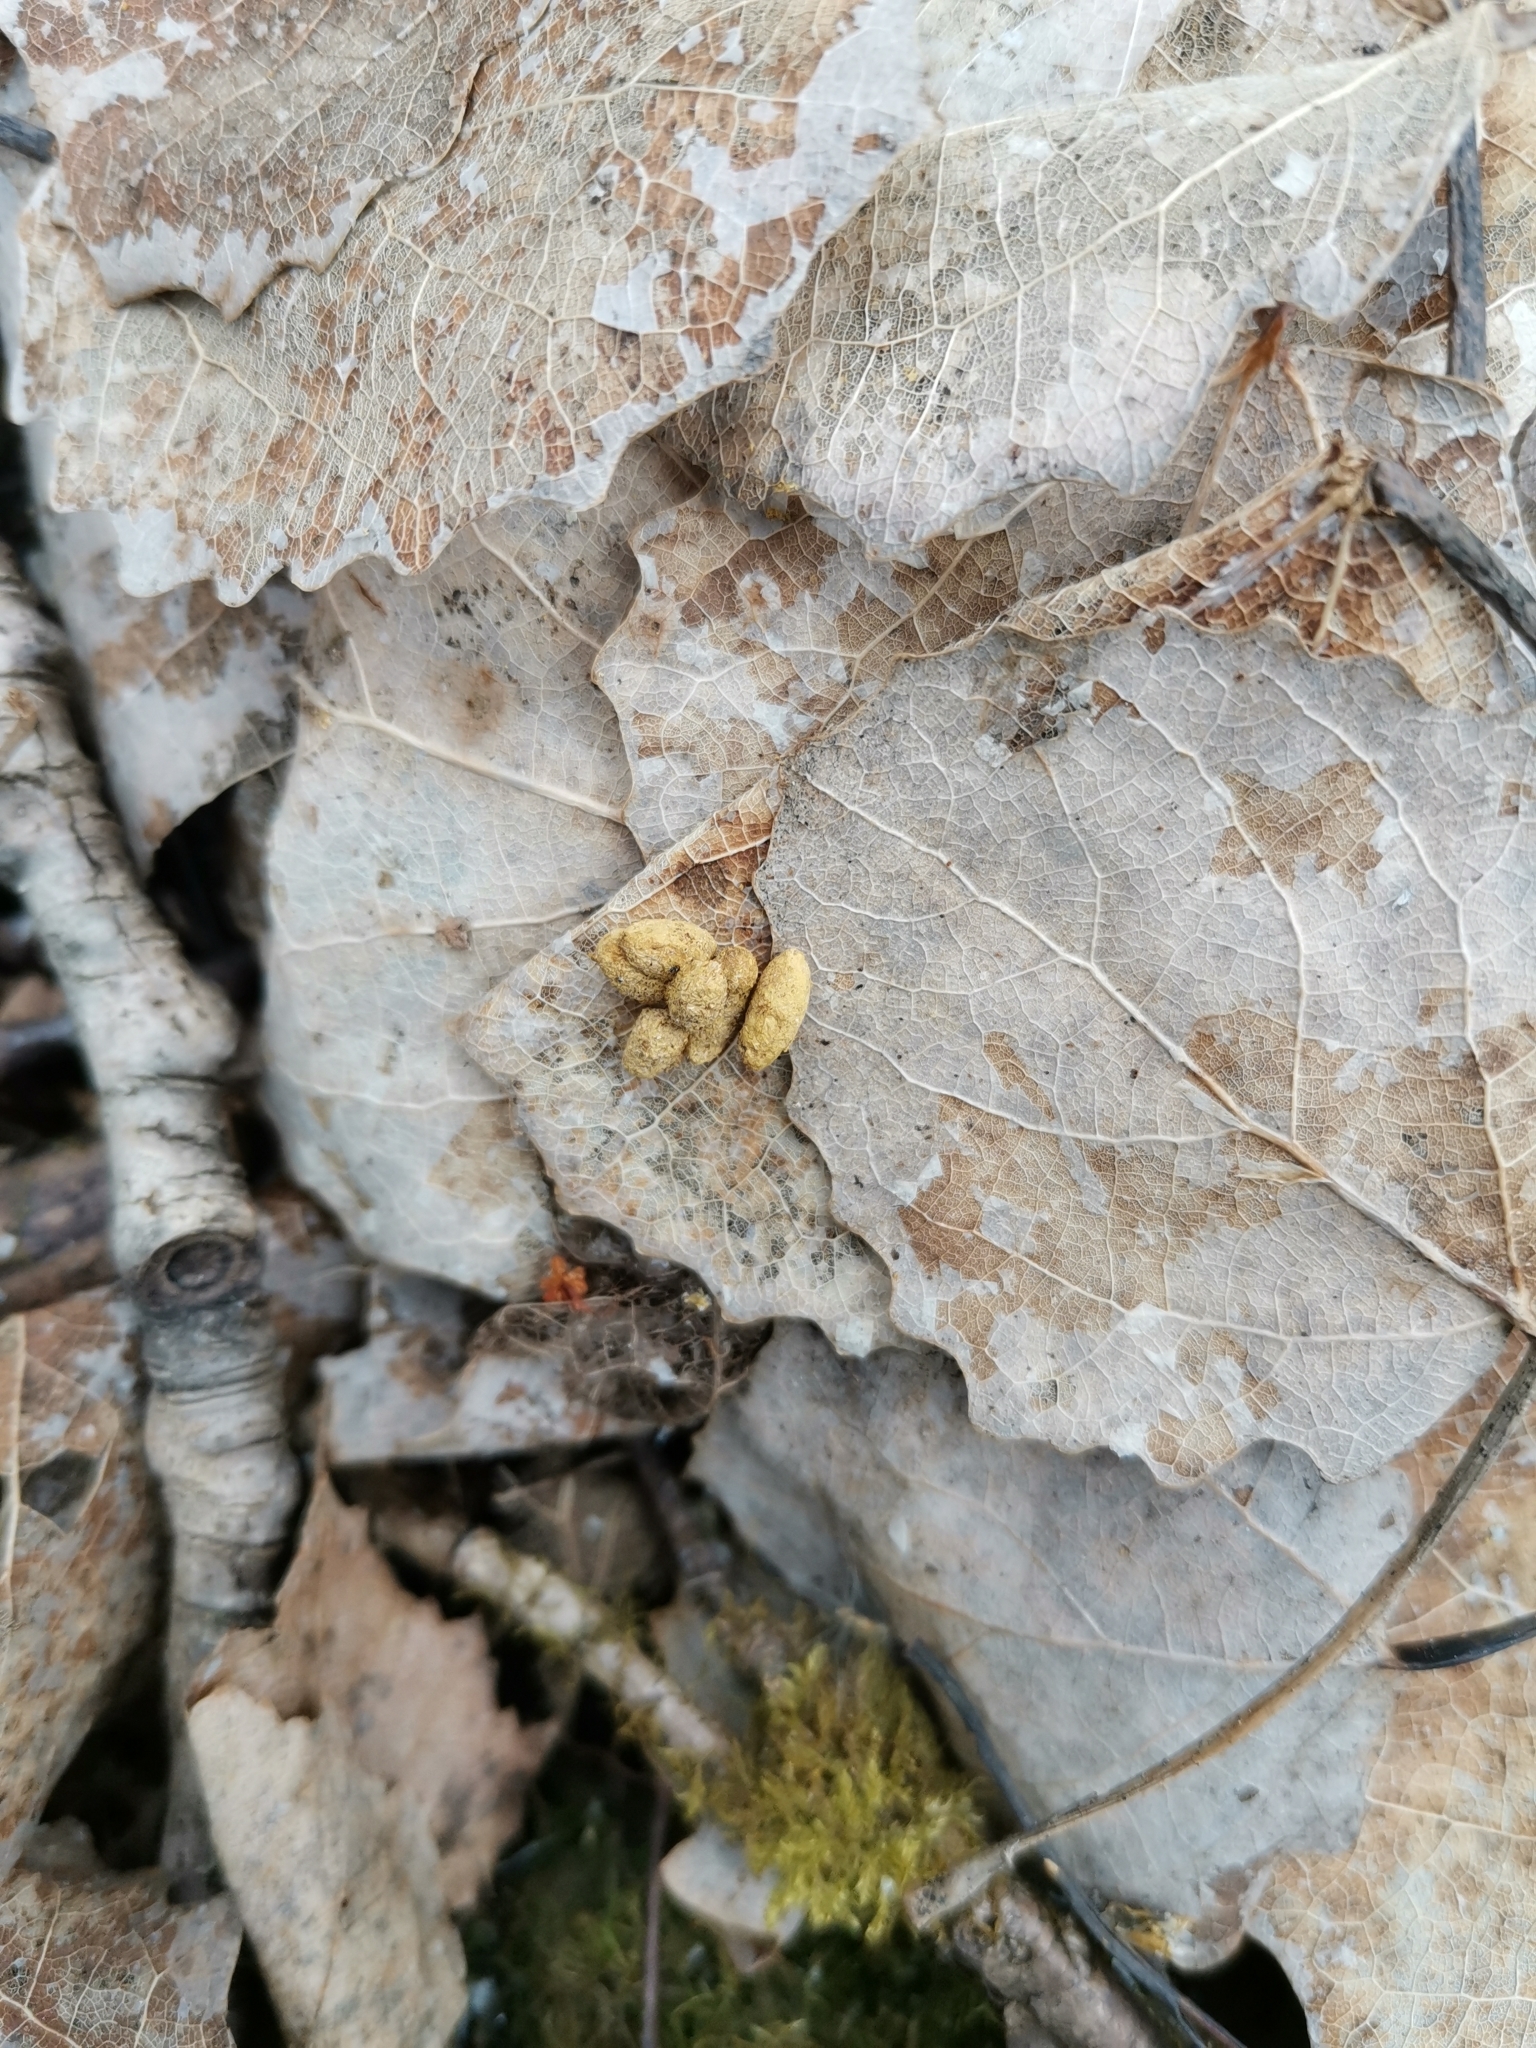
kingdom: Animalia
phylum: Chordata
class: Mammalia
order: Rodentia
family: Sciuridae
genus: Pteromys
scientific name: Pteromys volans
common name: Siberian flying squirrel
